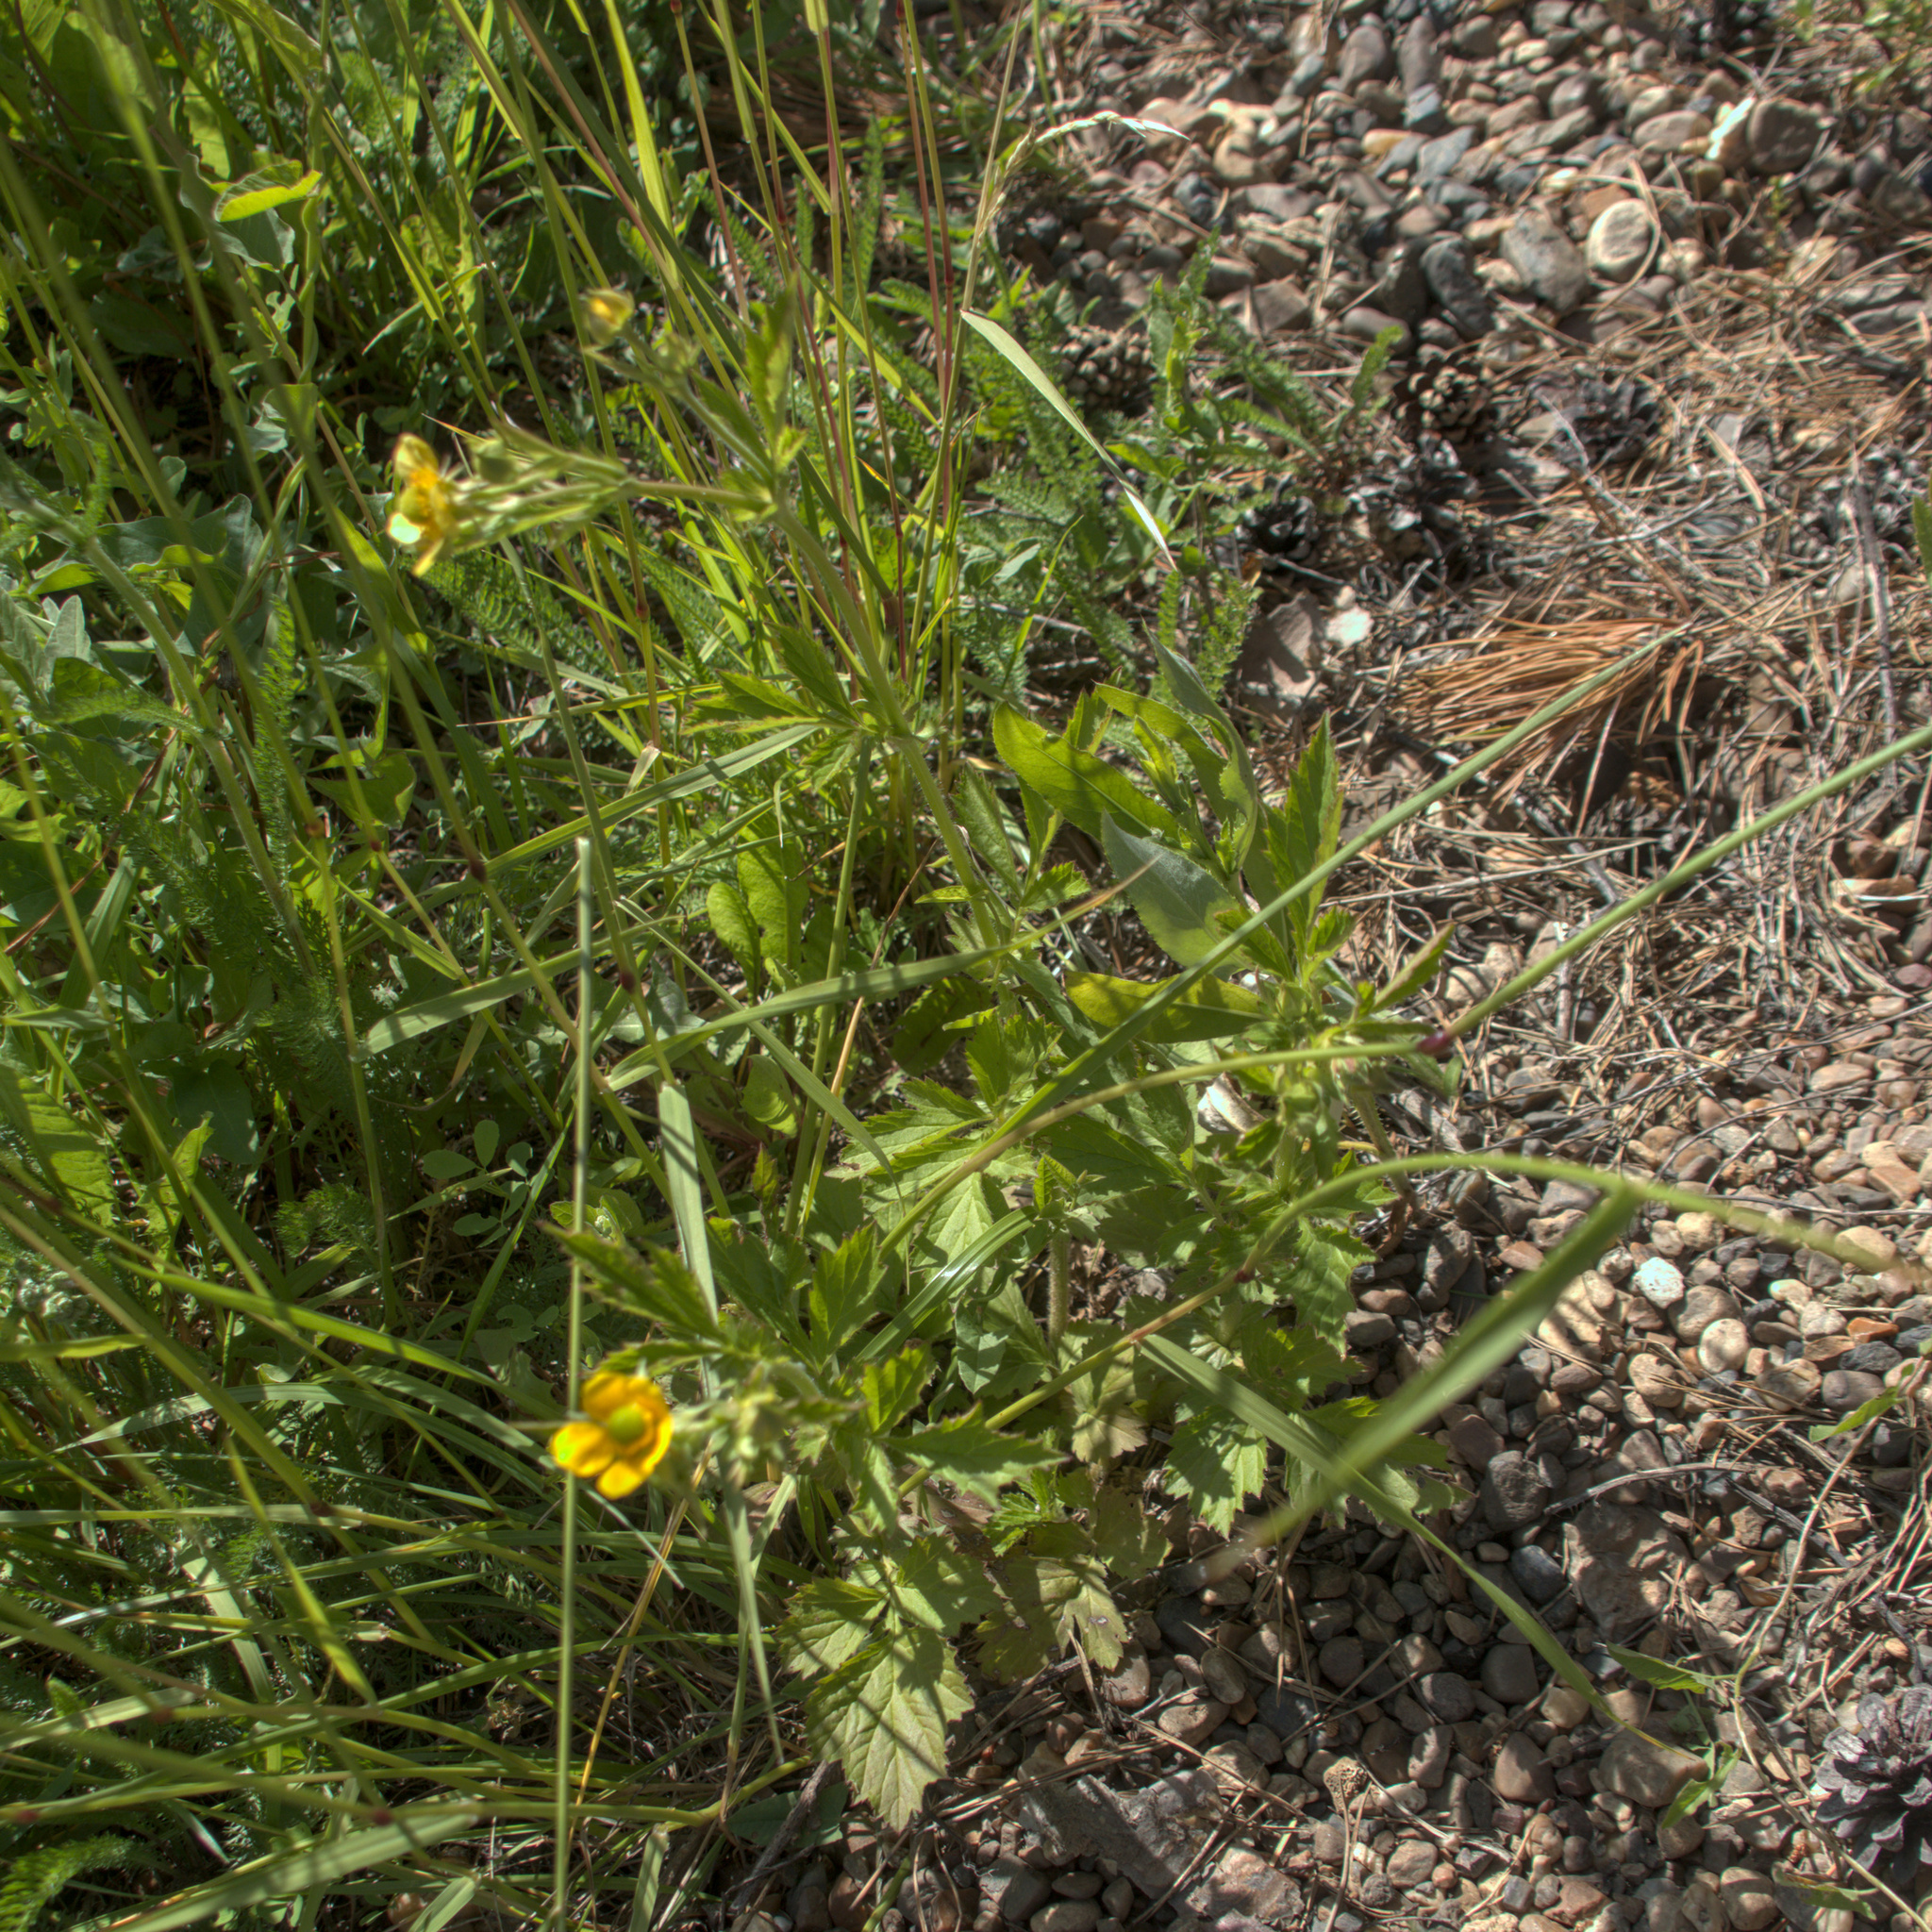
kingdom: Plantae
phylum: Tracheophyta
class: Magnoliopsida
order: Rosales
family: Rosaceae
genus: Geum
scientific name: Geum aleppicum
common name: Yellow avens
